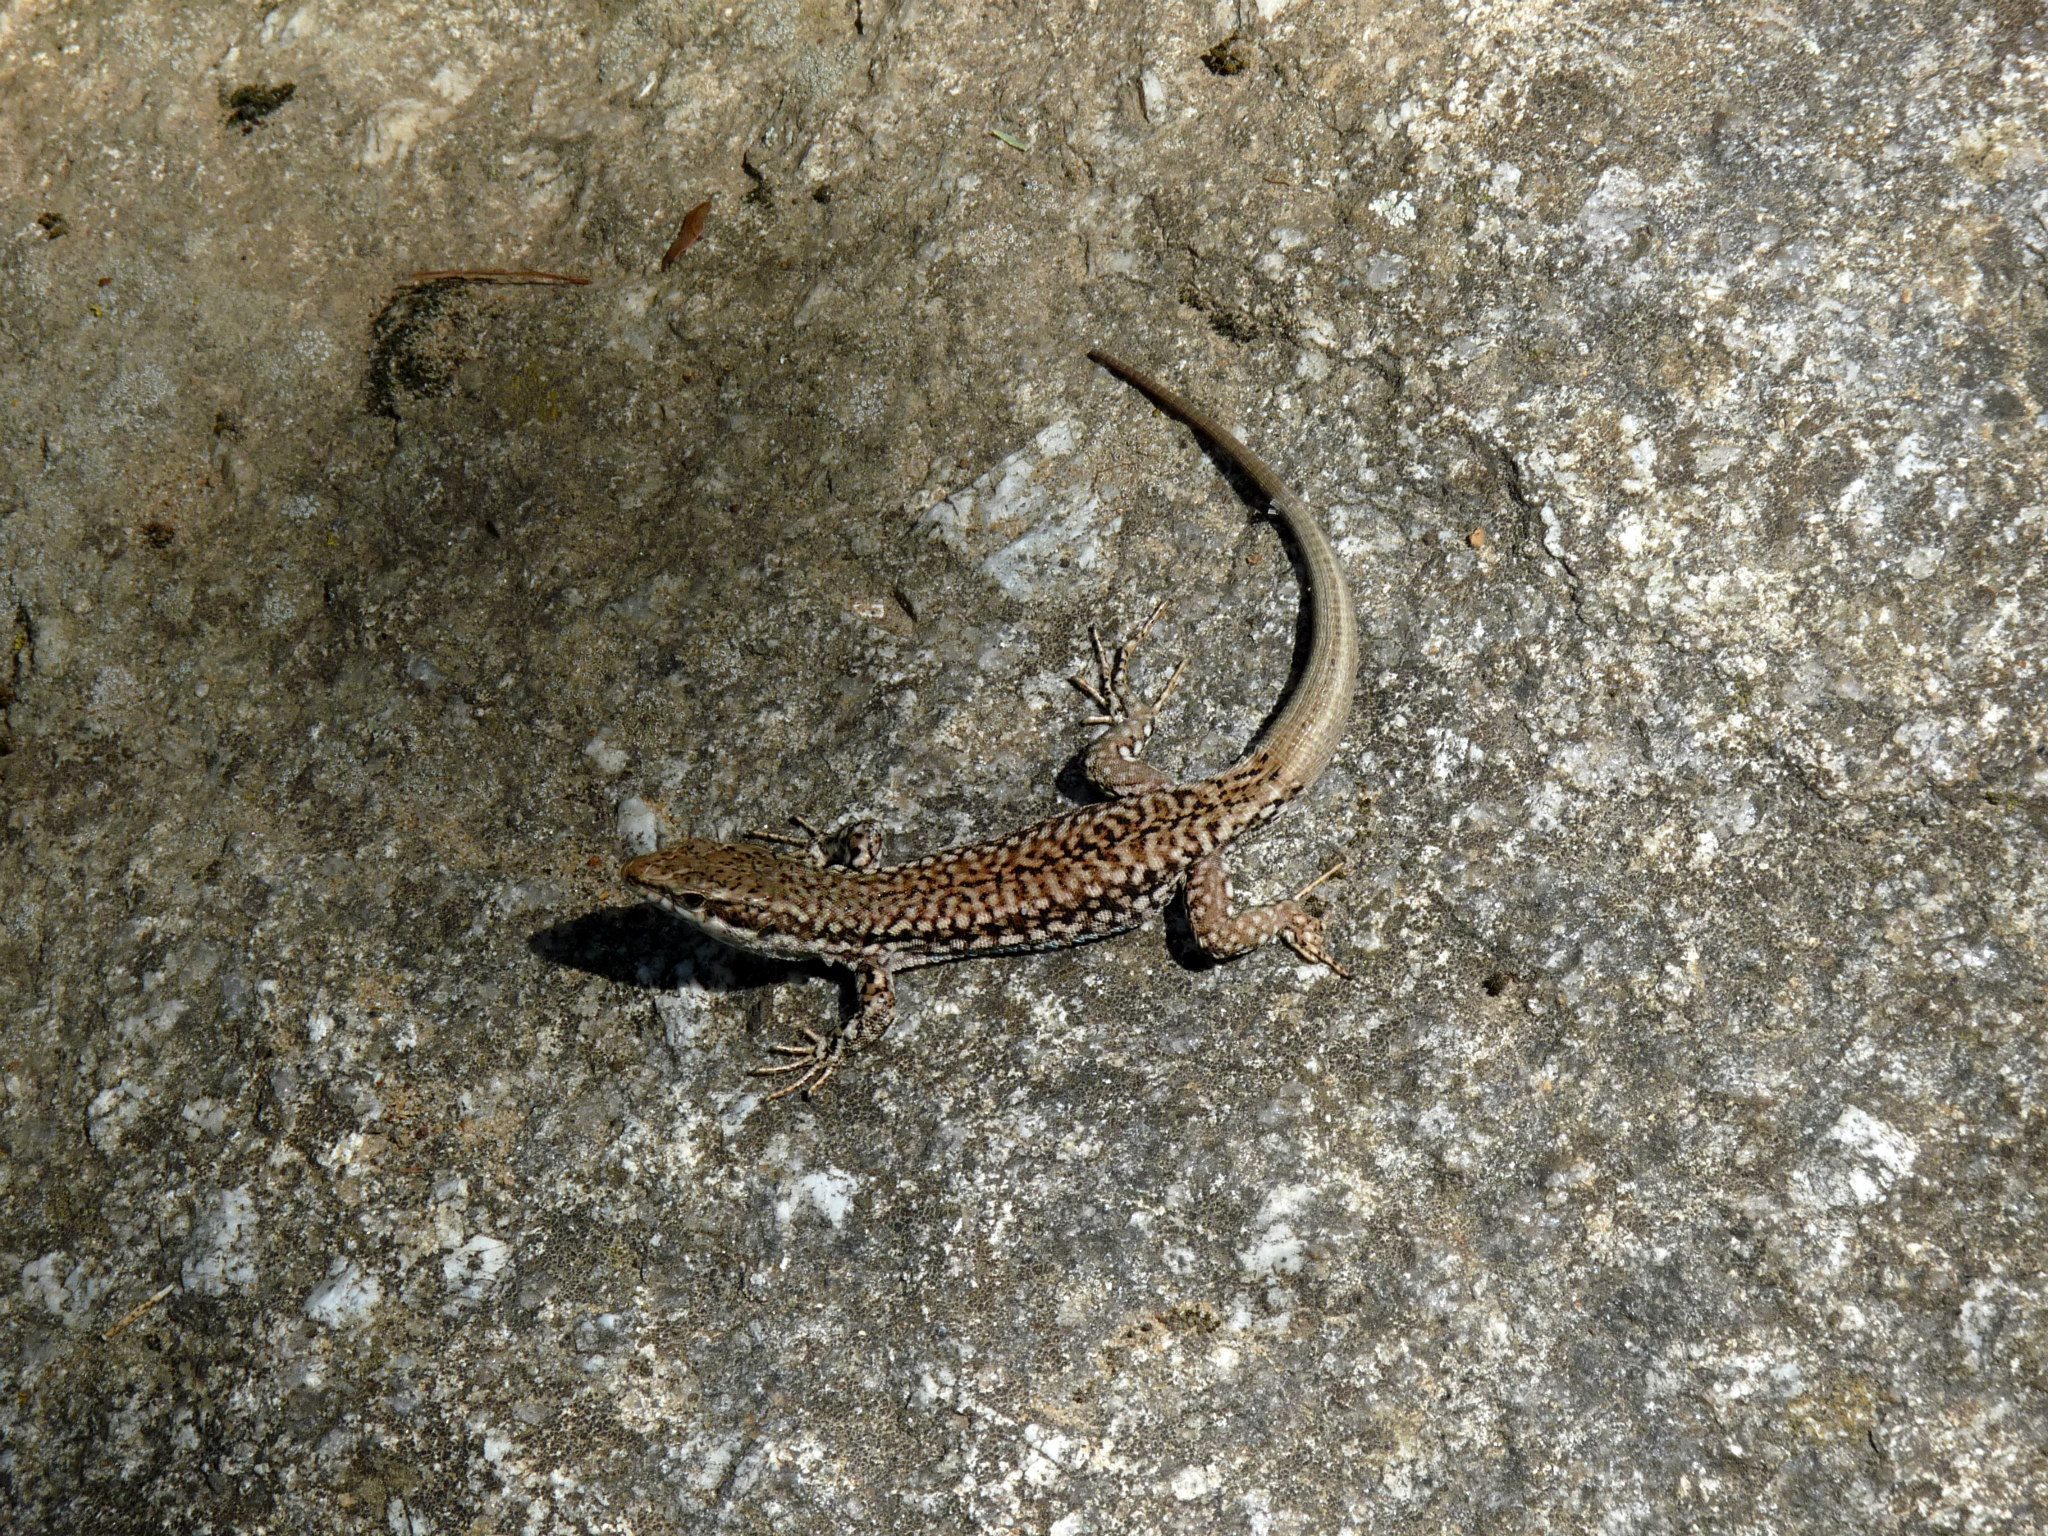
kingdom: Animalia
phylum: Chordata
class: Squamata
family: Lacertidae
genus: Podarcis
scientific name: Podarcis muralis
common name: Common wall lizard
